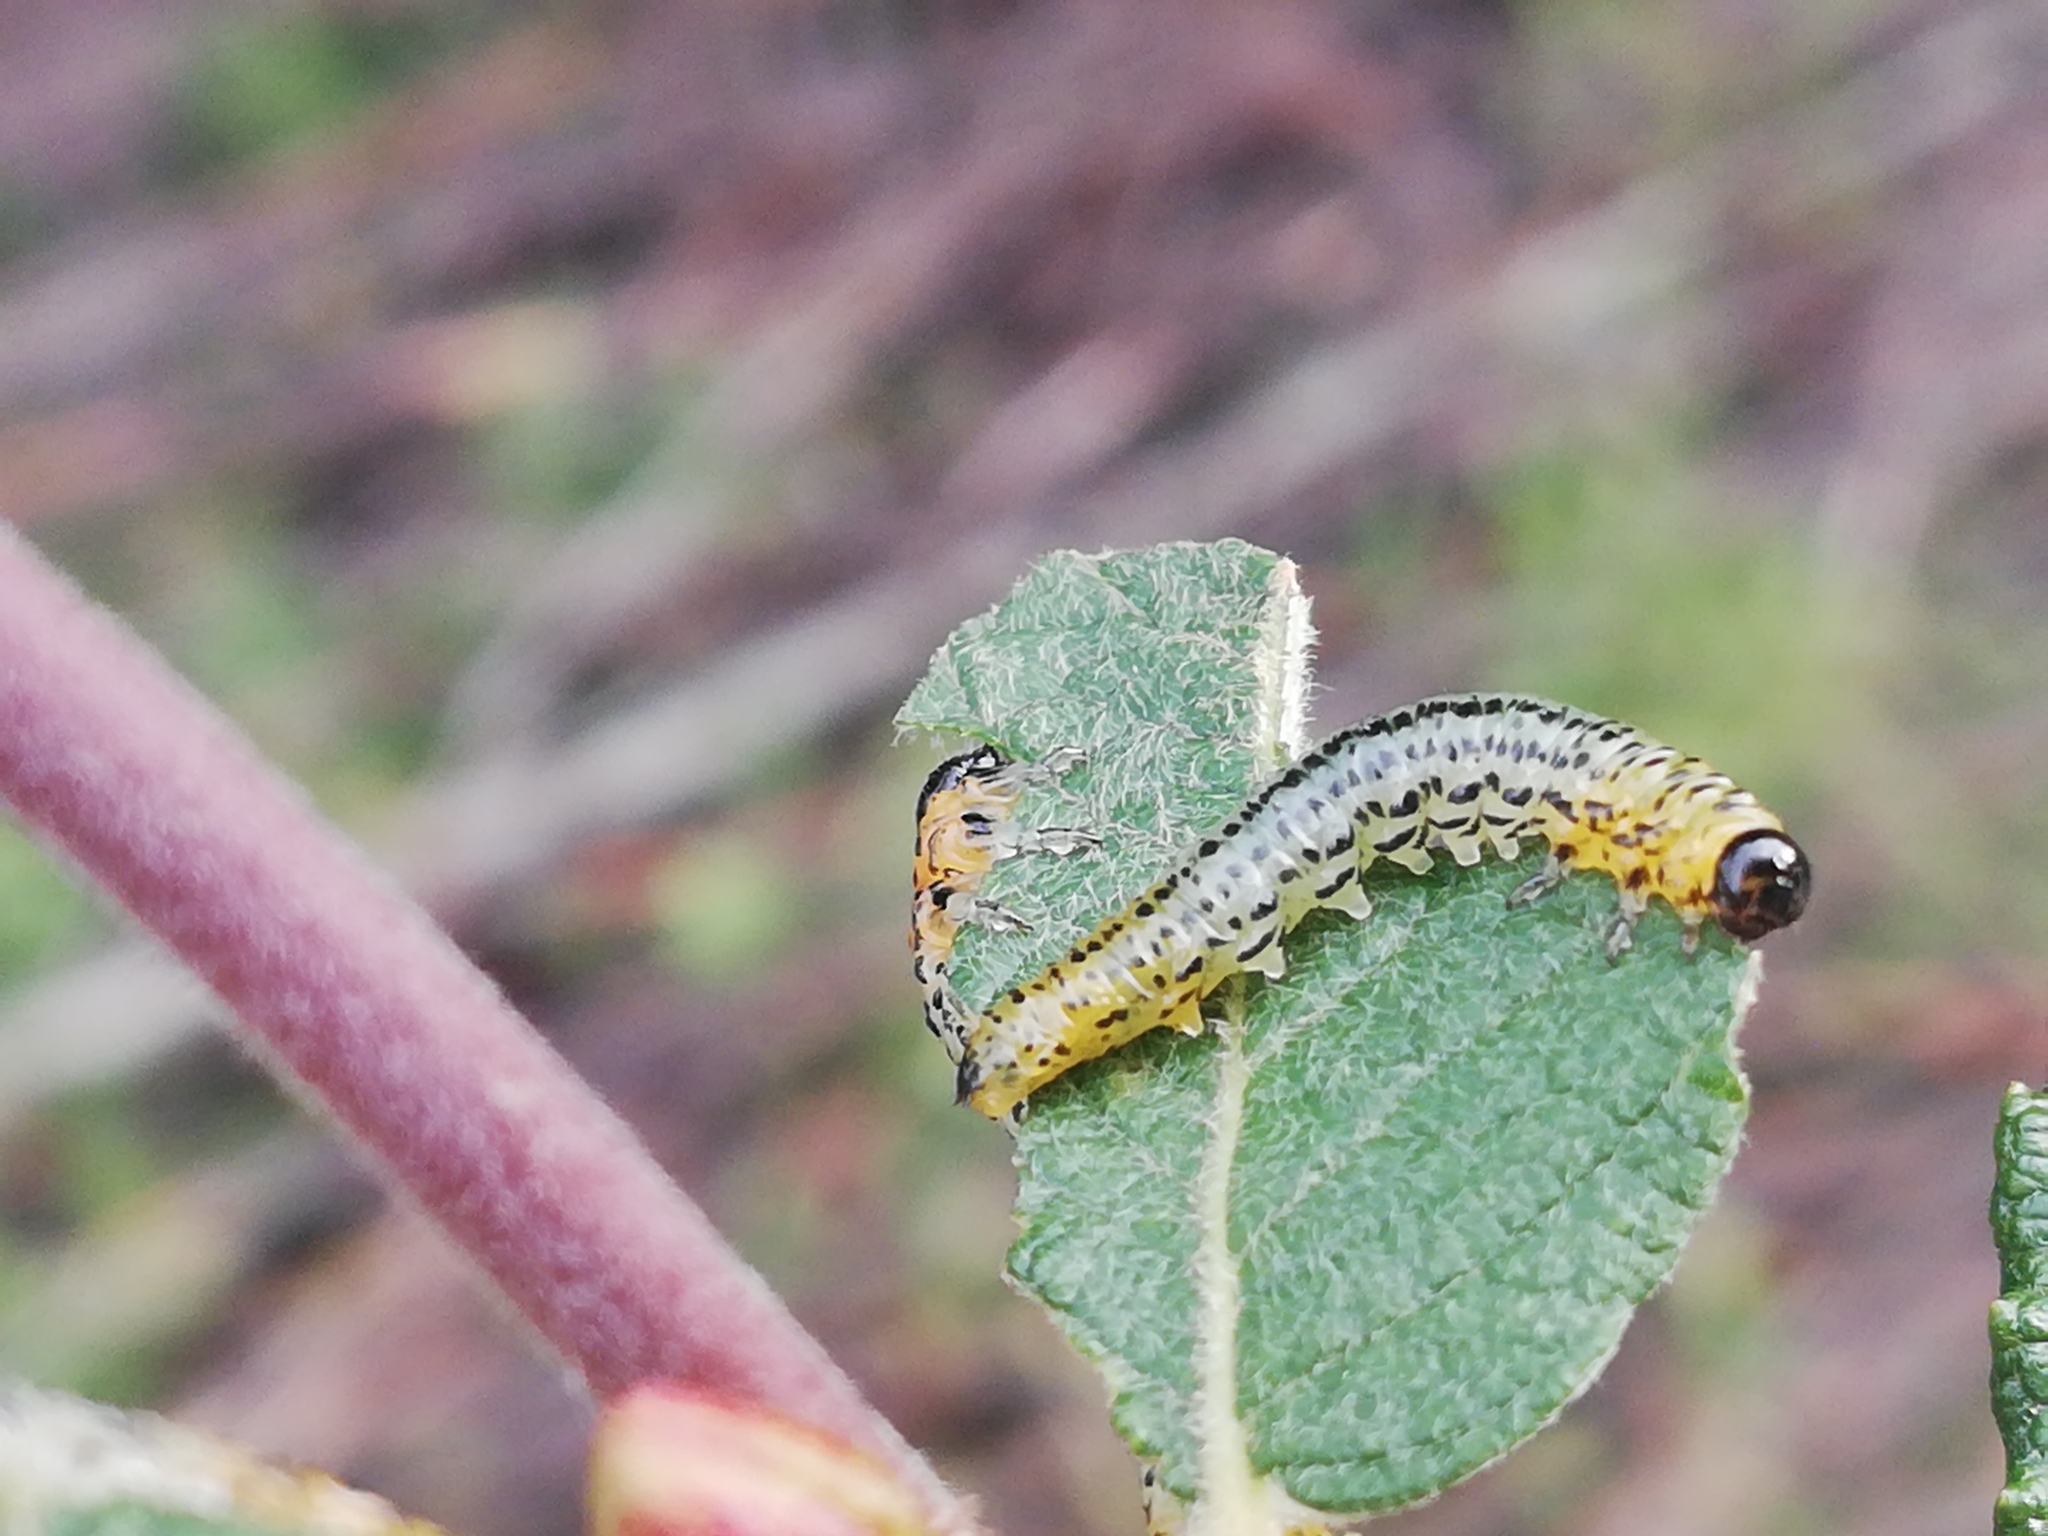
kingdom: Animalia
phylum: Arthropoda
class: Insecta
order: Hymenoptera
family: Tenthredinidae
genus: Nematus
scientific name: Nematus miliaris
